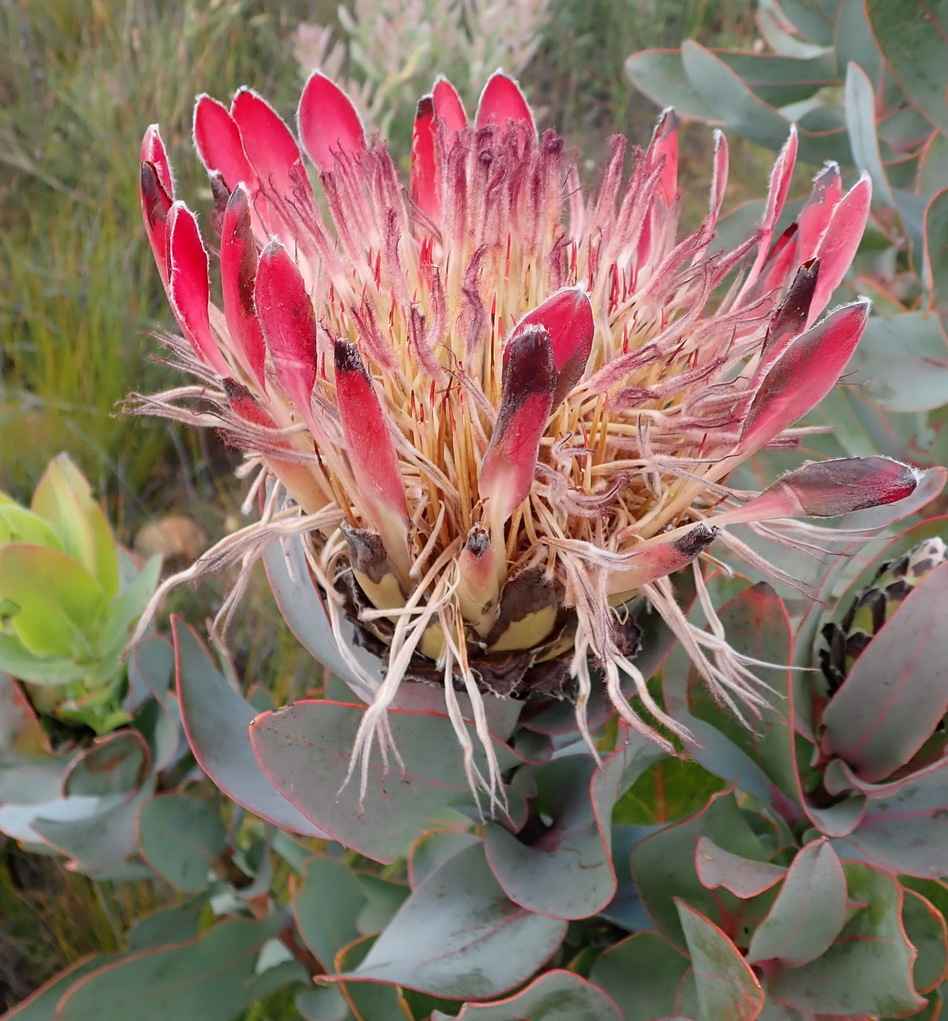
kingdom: Plantae
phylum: Tracheophyta
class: Magnoliopsida
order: Proteales
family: Proteaceae
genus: Protea
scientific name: Protea eximia
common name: Broad-leaved sugarbush
